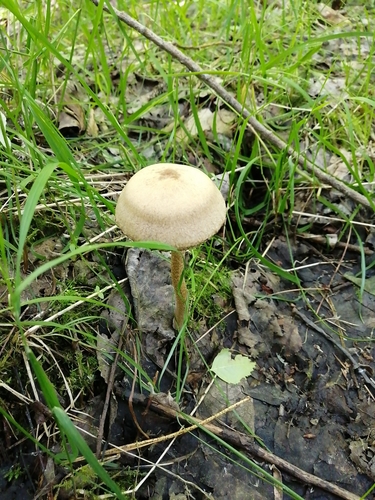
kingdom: Fungi
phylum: Basidiomycota
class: Agaricomycetes
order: Agaricales
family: Psathyrellaceae
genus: Lacrymaria
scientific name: Lacrymaria lacrymabunda
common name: Weeping widow
